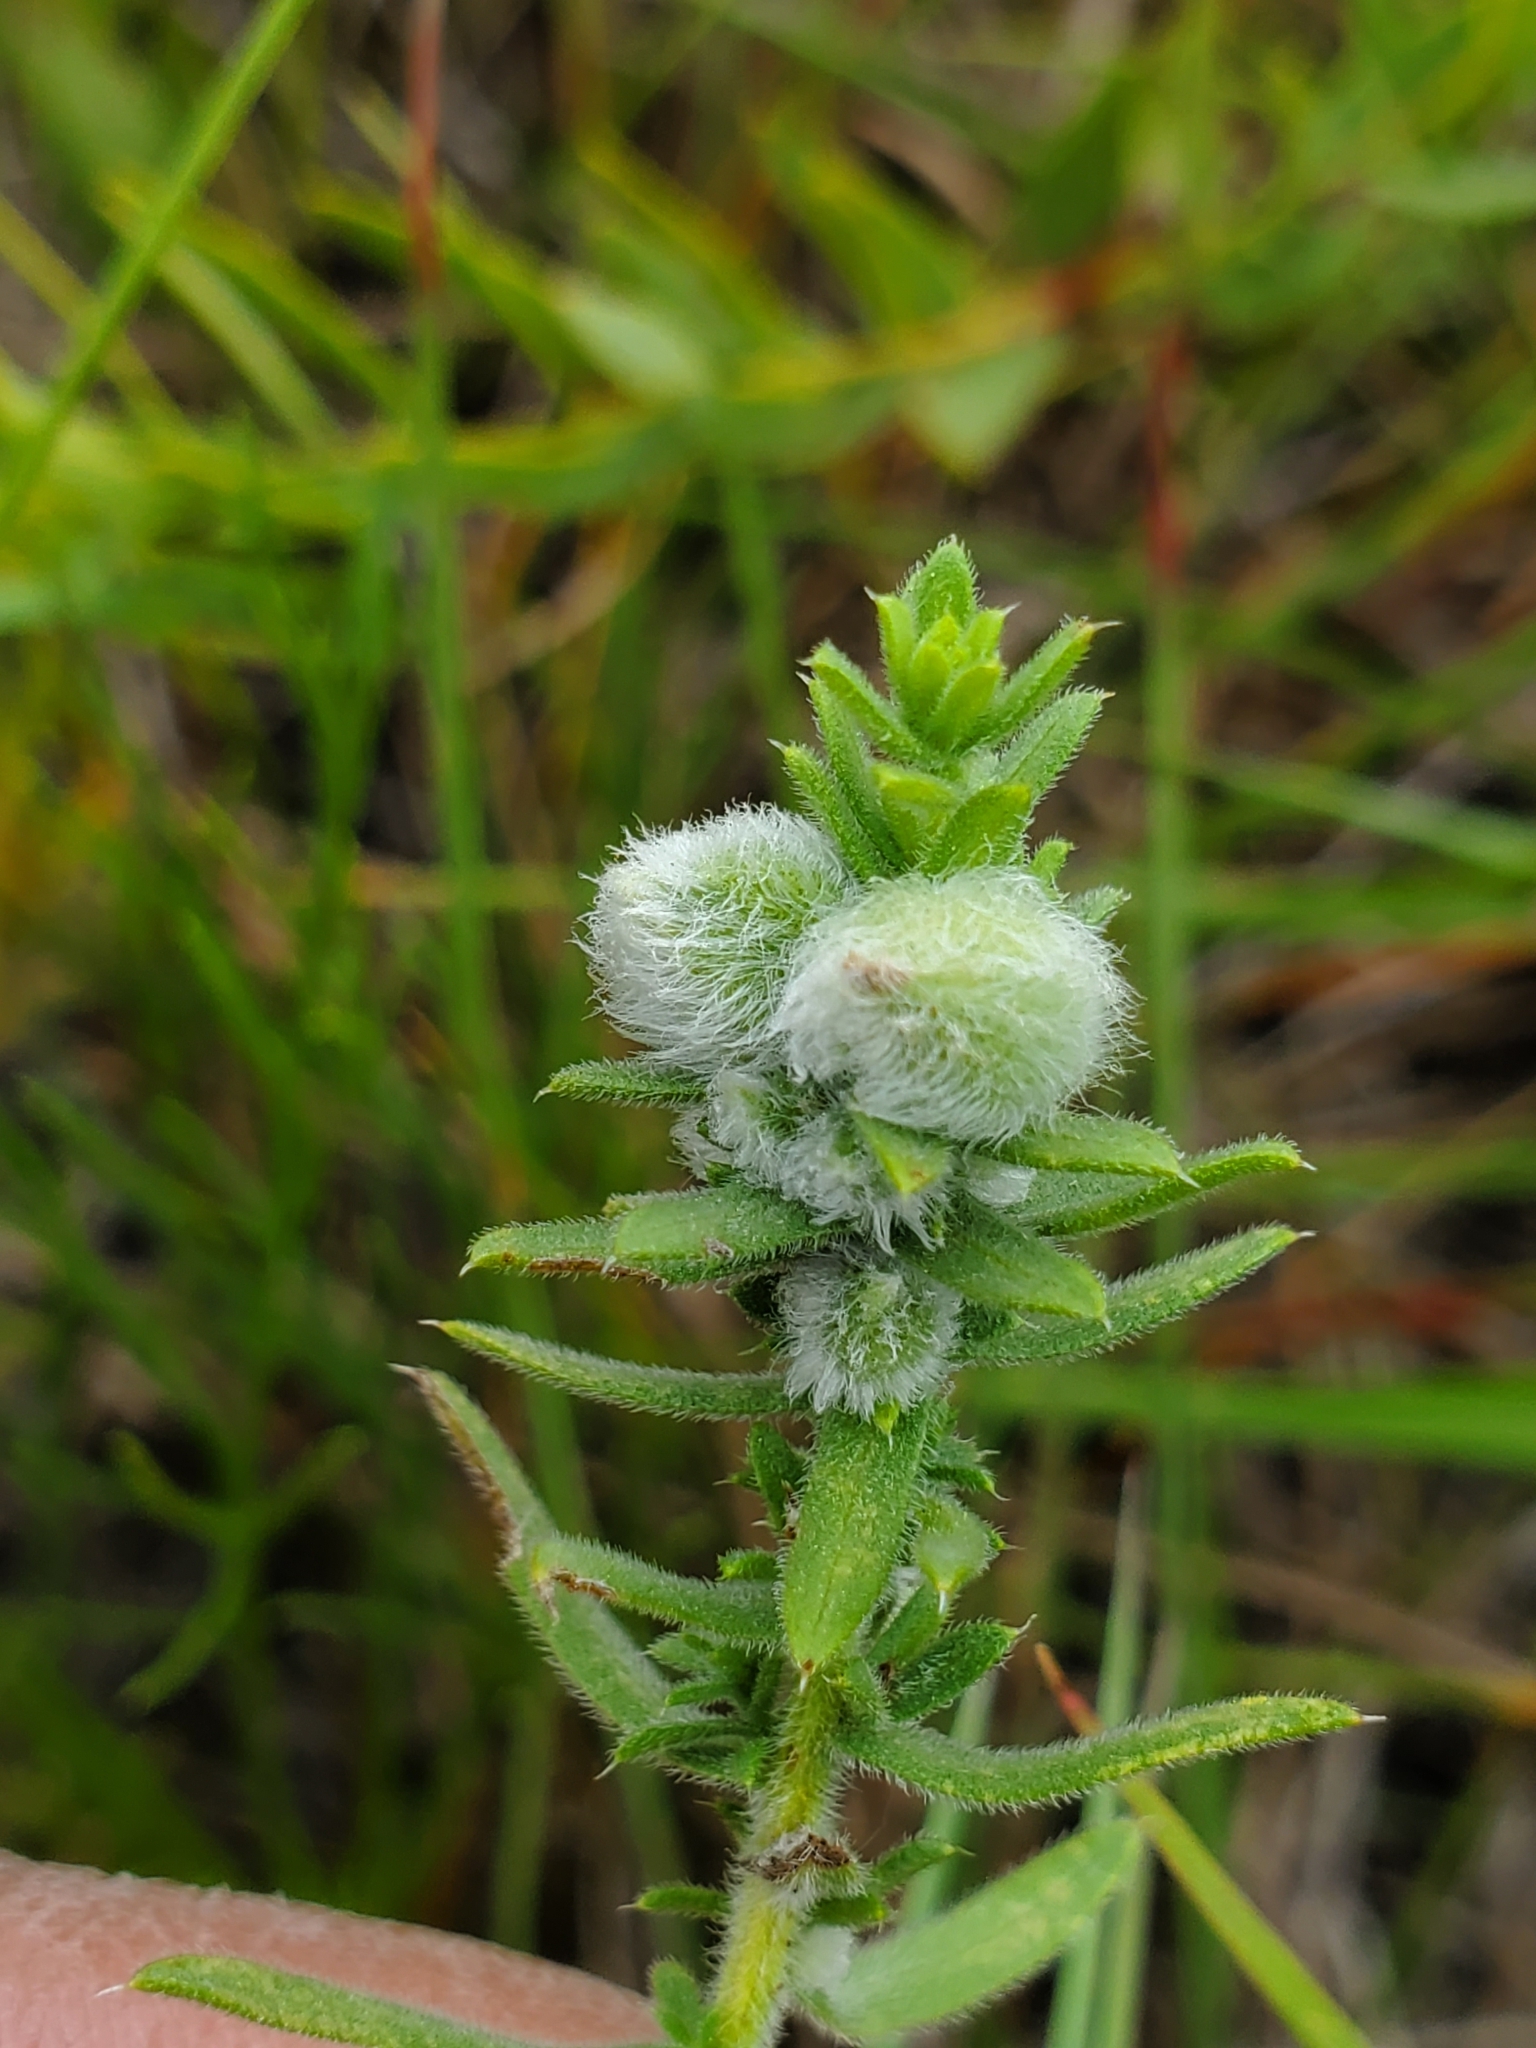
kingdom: Animalia
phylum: Arthropoda
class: Insecta
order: Diptera
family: Cecidomyiidae
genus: Rhopalomyia
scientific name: Rhopalomyia gemmaria
